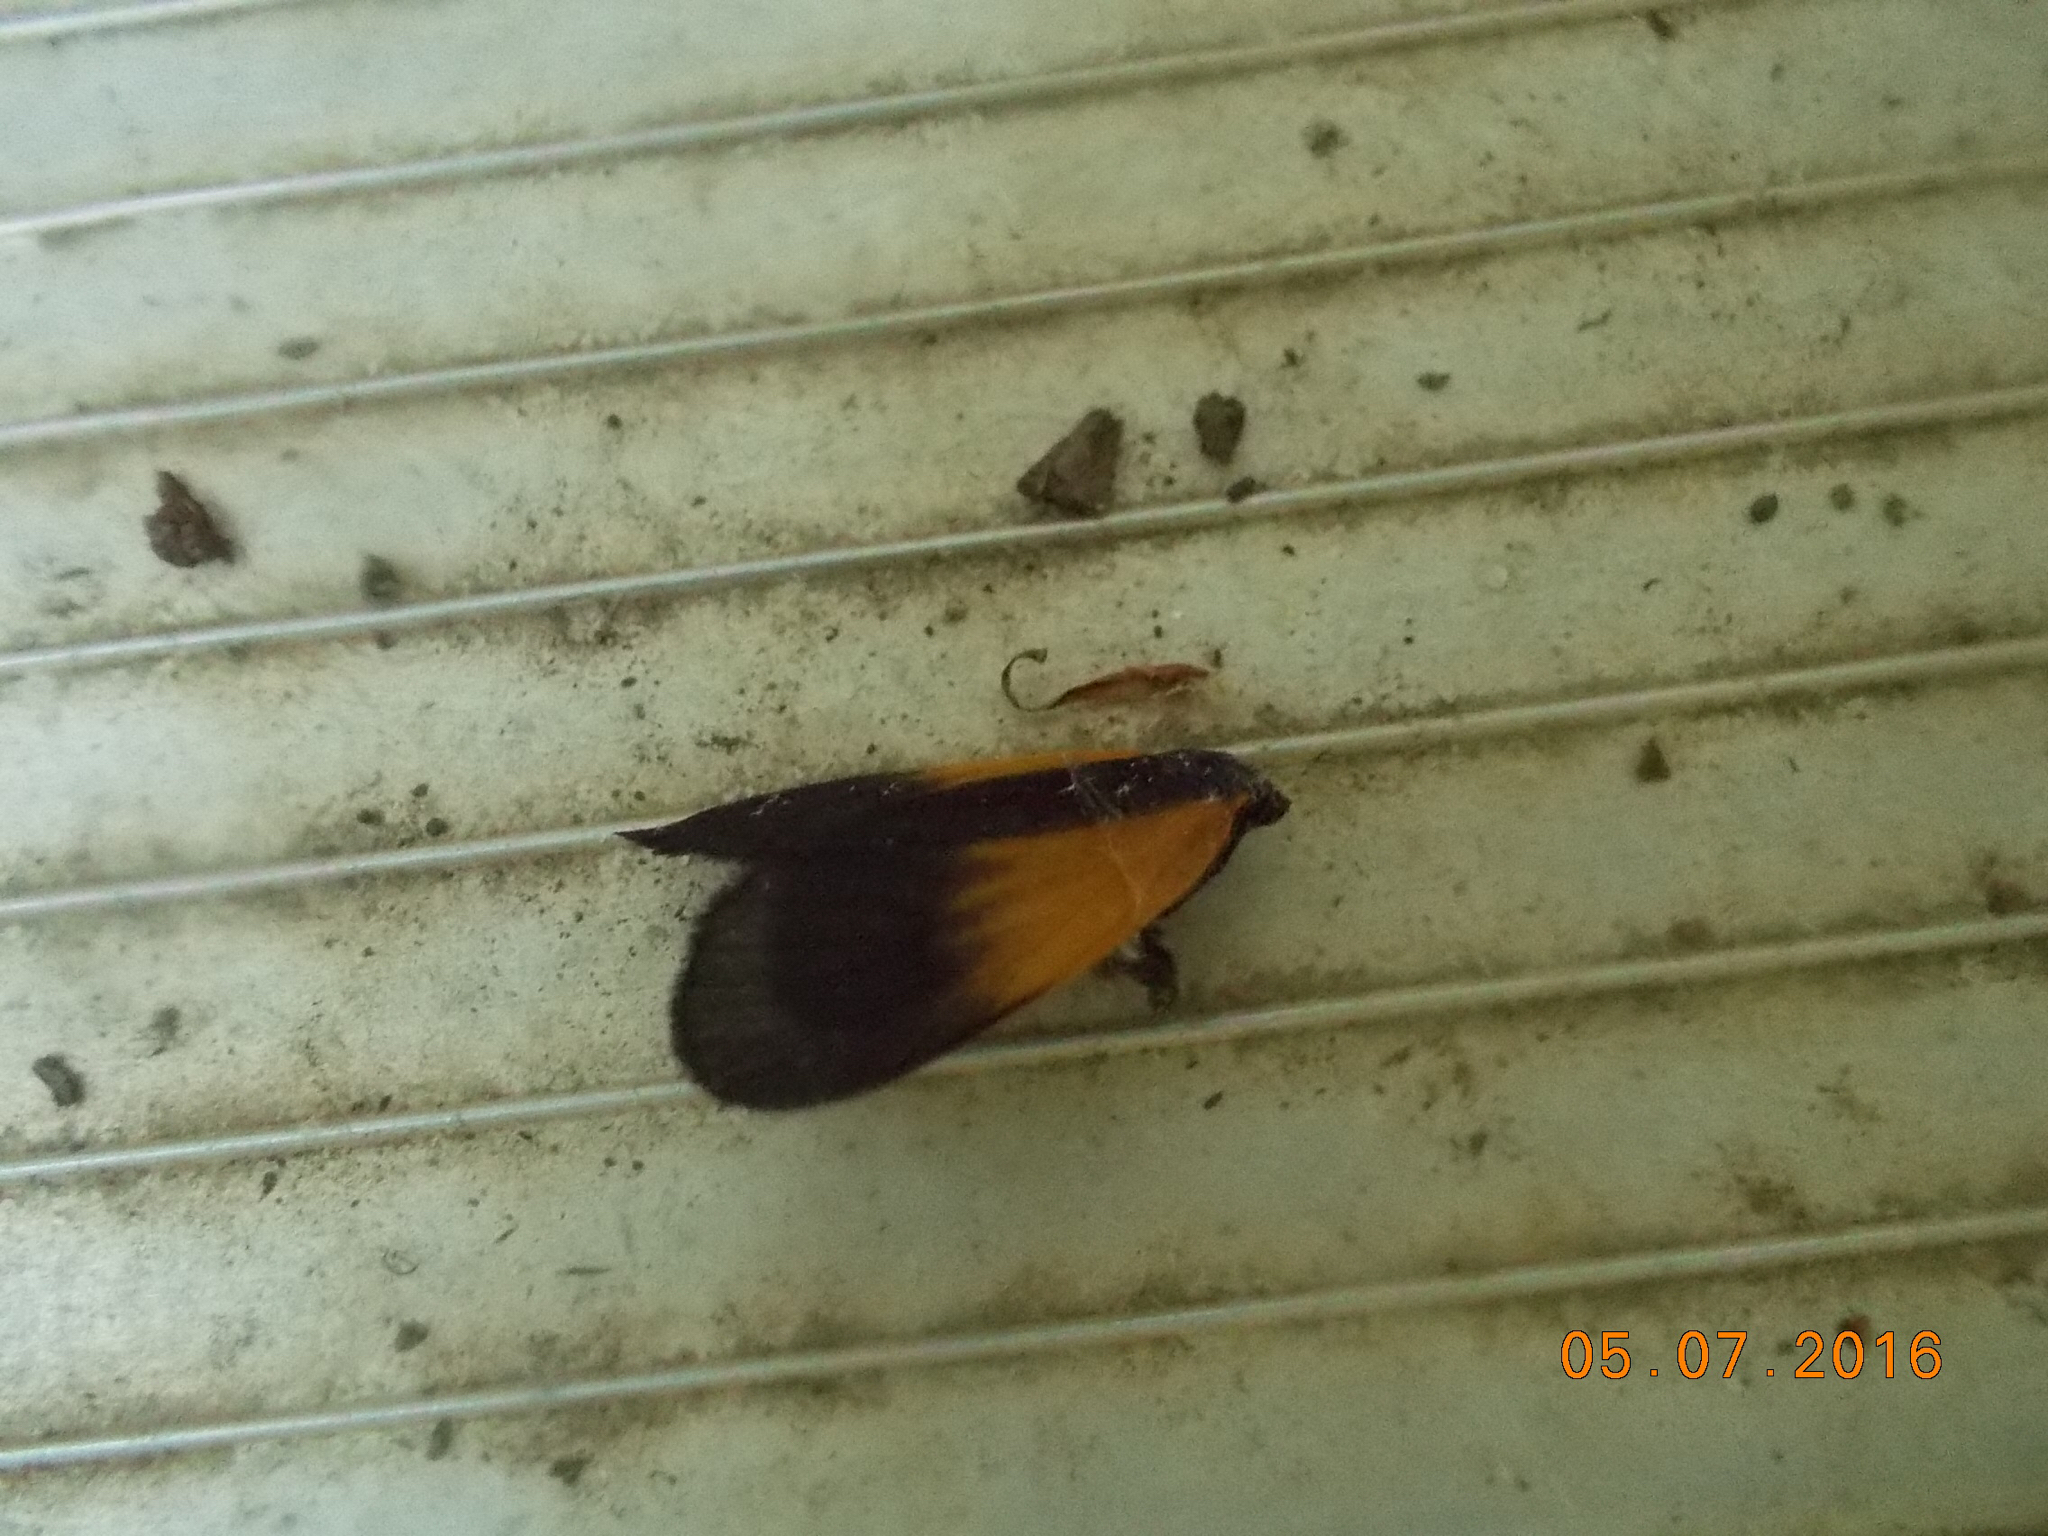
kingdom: Animalia
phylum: Arthropoda
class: Insecta
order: Lepidoptera
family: Zygaenidae
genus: Malthaca
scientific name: Malthaca dimidiata
